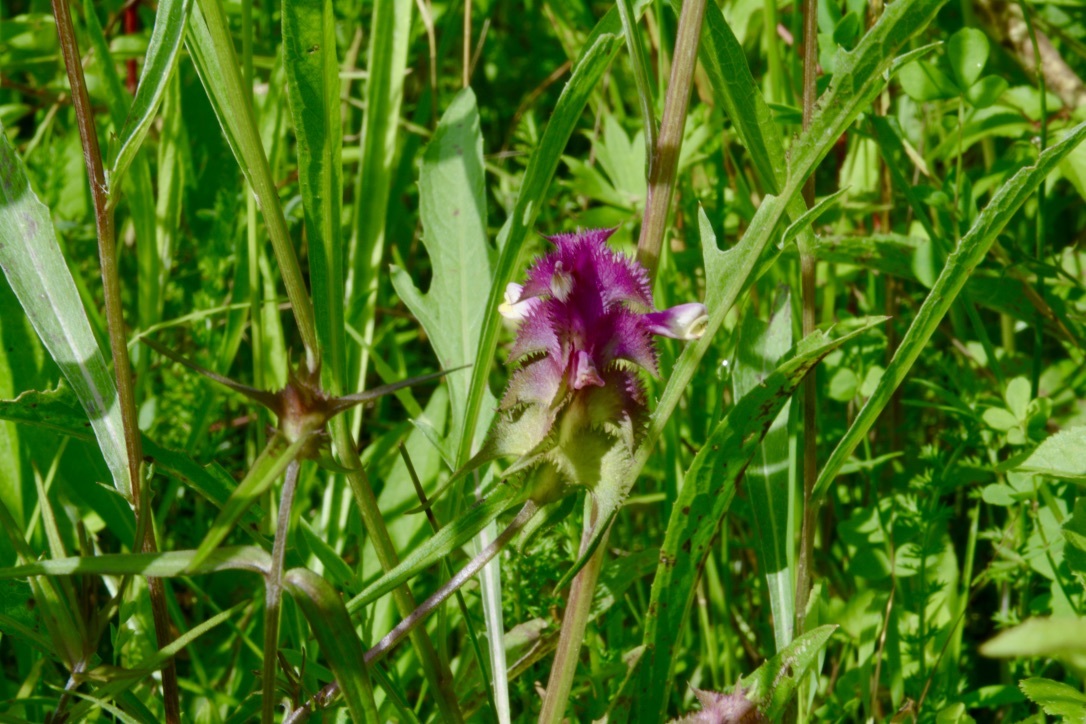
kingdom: Plantae
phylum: Tracheophyta
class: Magnoliopsida
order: Lamiales
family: Orobanchaceae
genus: Melampyrum
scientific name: Melampyrum cristatum
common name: Crested cow-wheat
